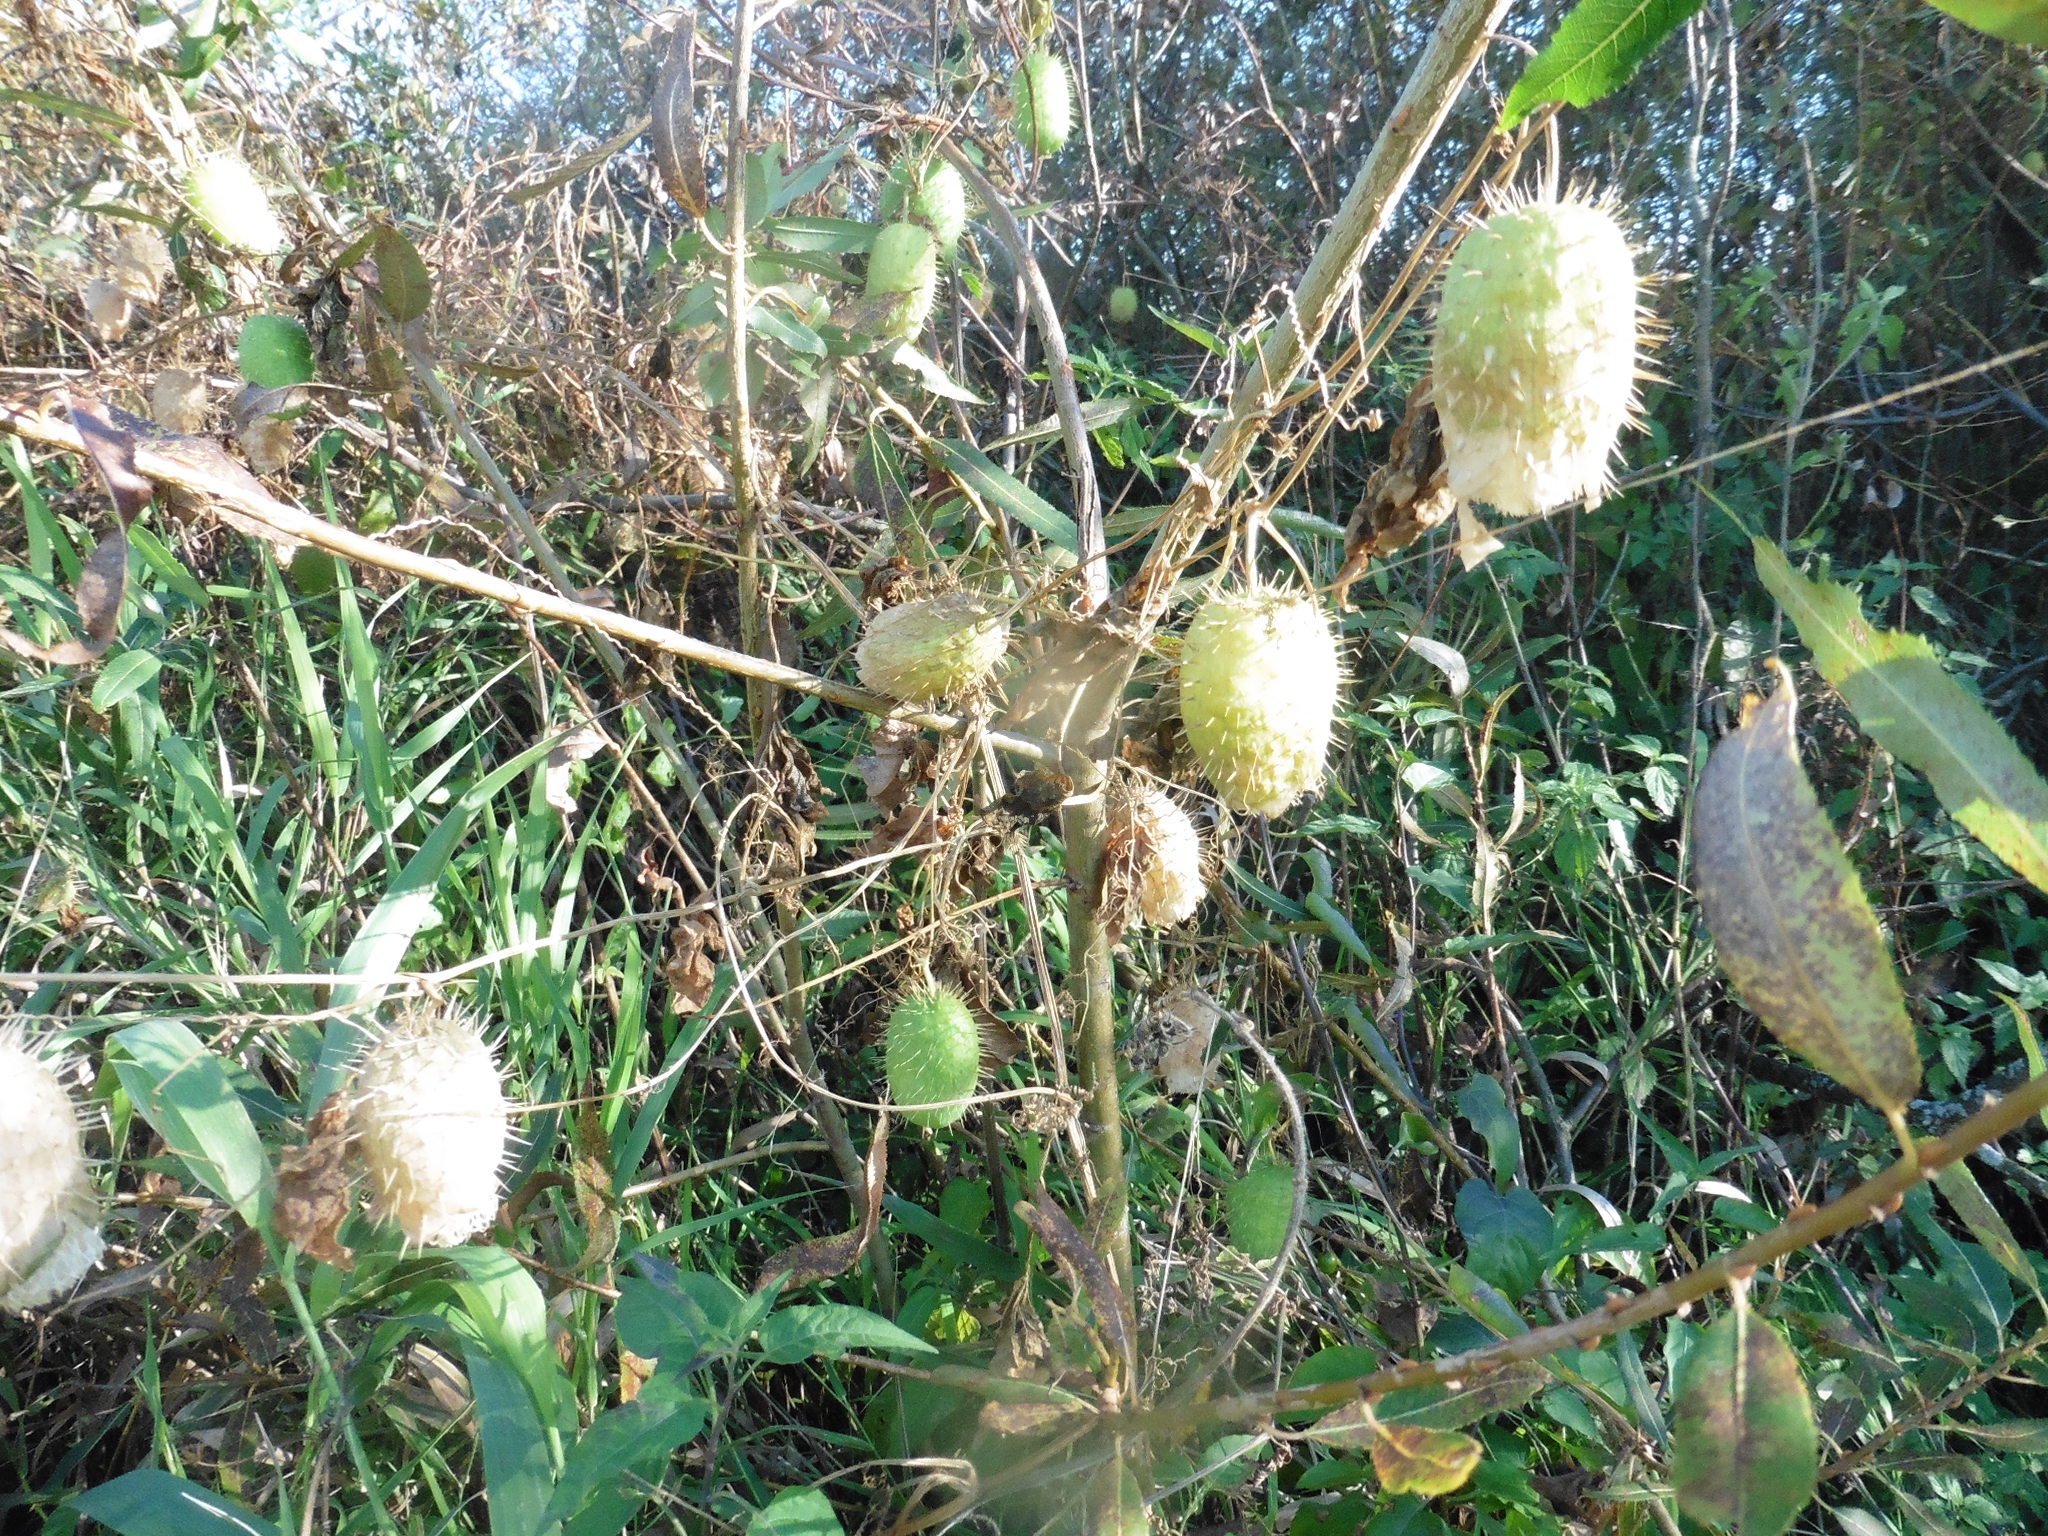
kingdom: Plantae
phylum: Tracheophyta
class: Magnoliopsida
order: Cucurbitales
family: Cucurbitaceae
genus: Echinocystis
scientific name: Echinocystis lobata
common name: Wild cucumber
